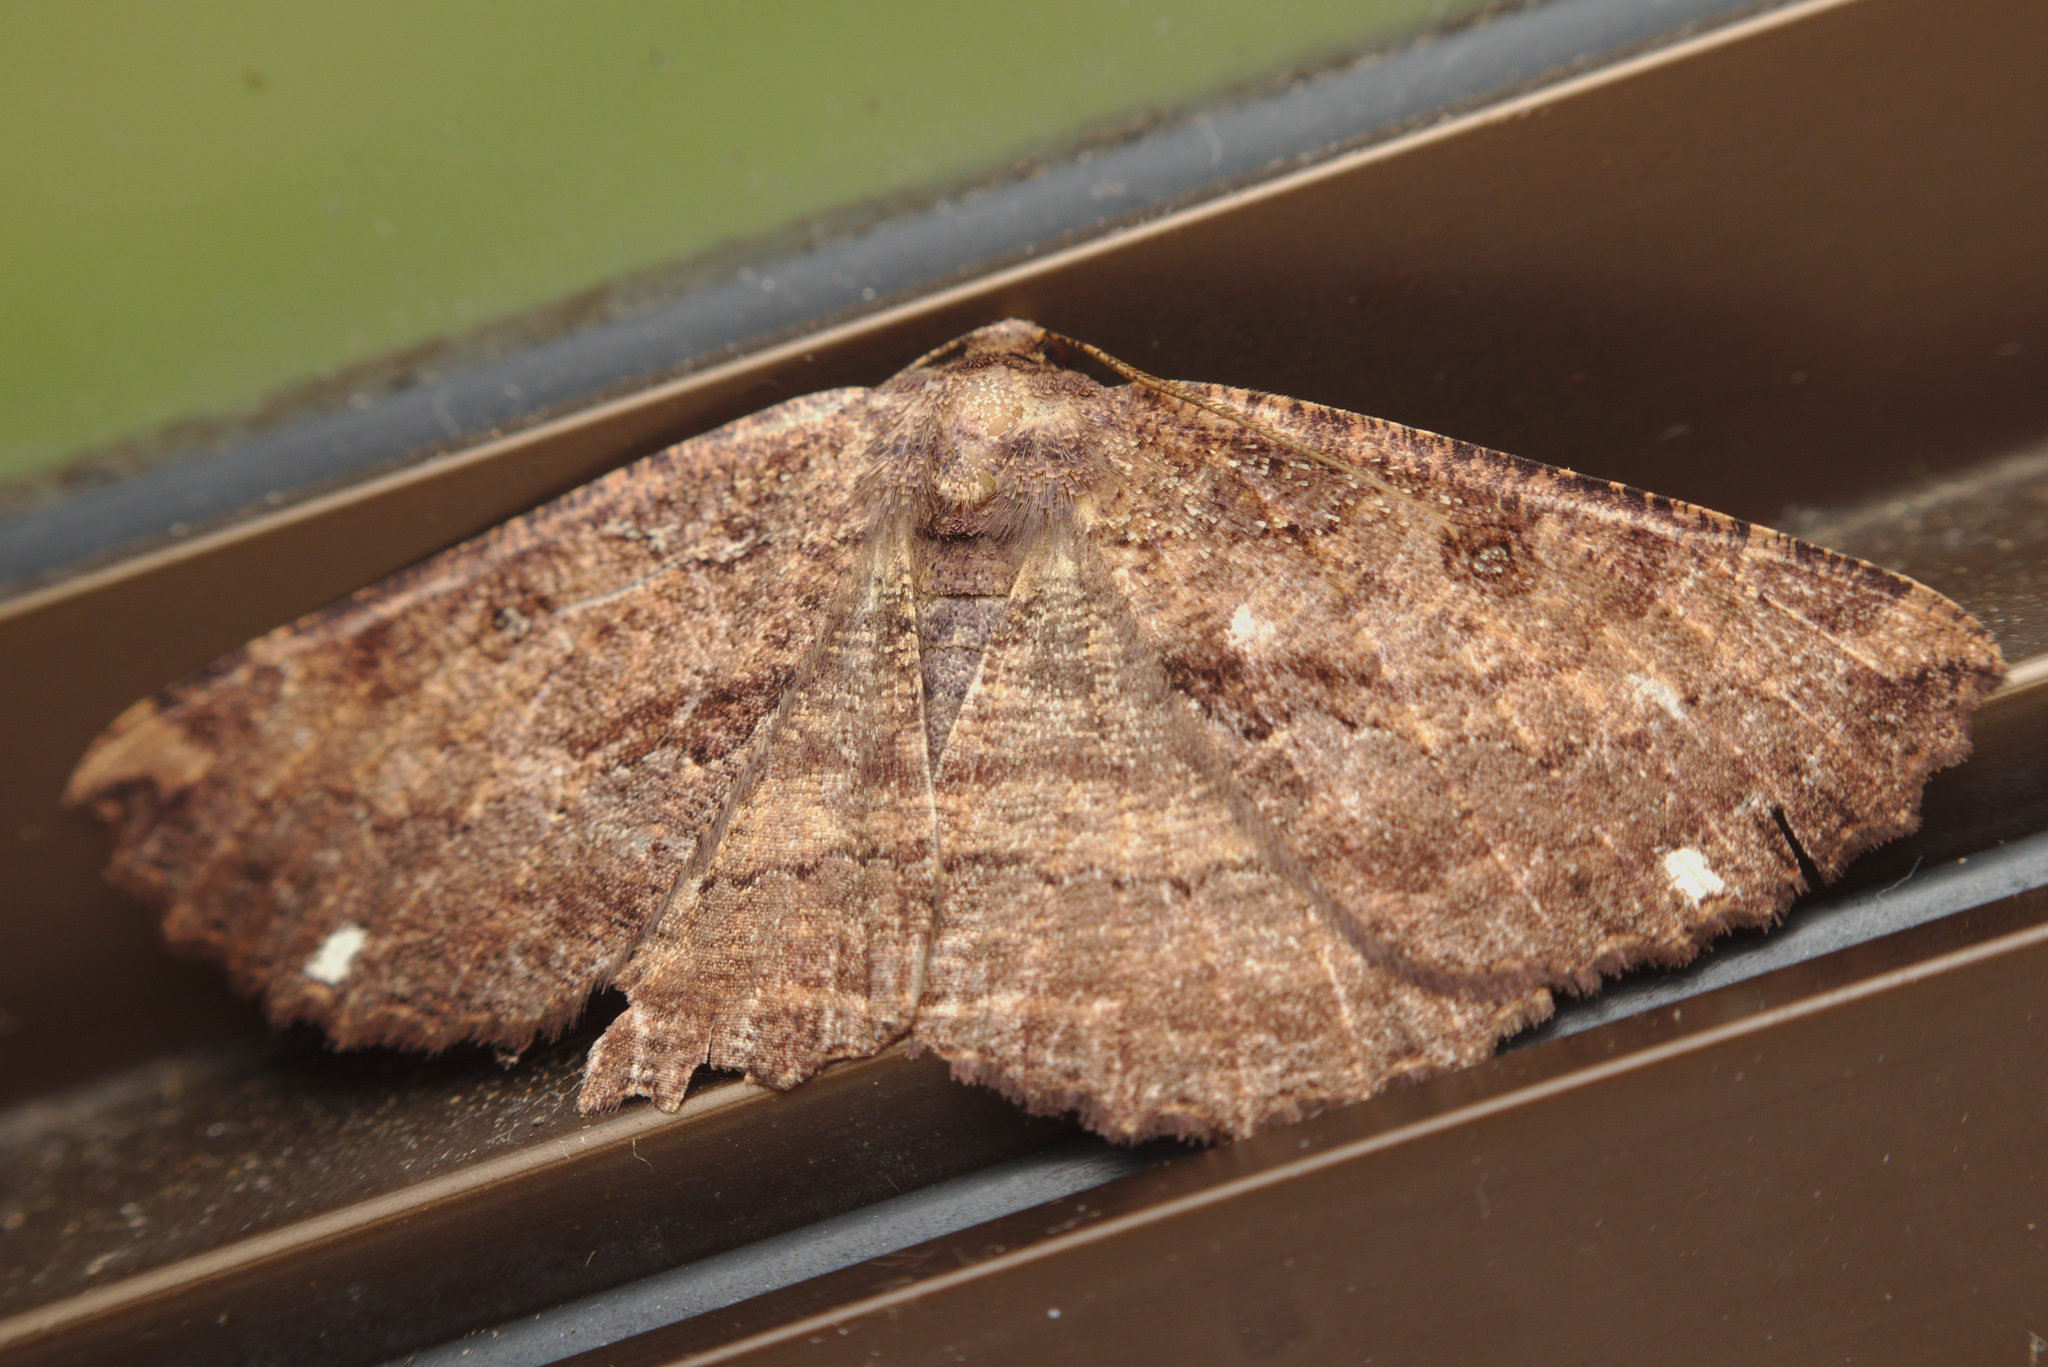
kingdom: Animalia
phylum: Arthropoda
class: Insecta
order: Lepidoptera
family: Geometridae
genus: Gellonia
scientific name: Gellonia dejectaria
